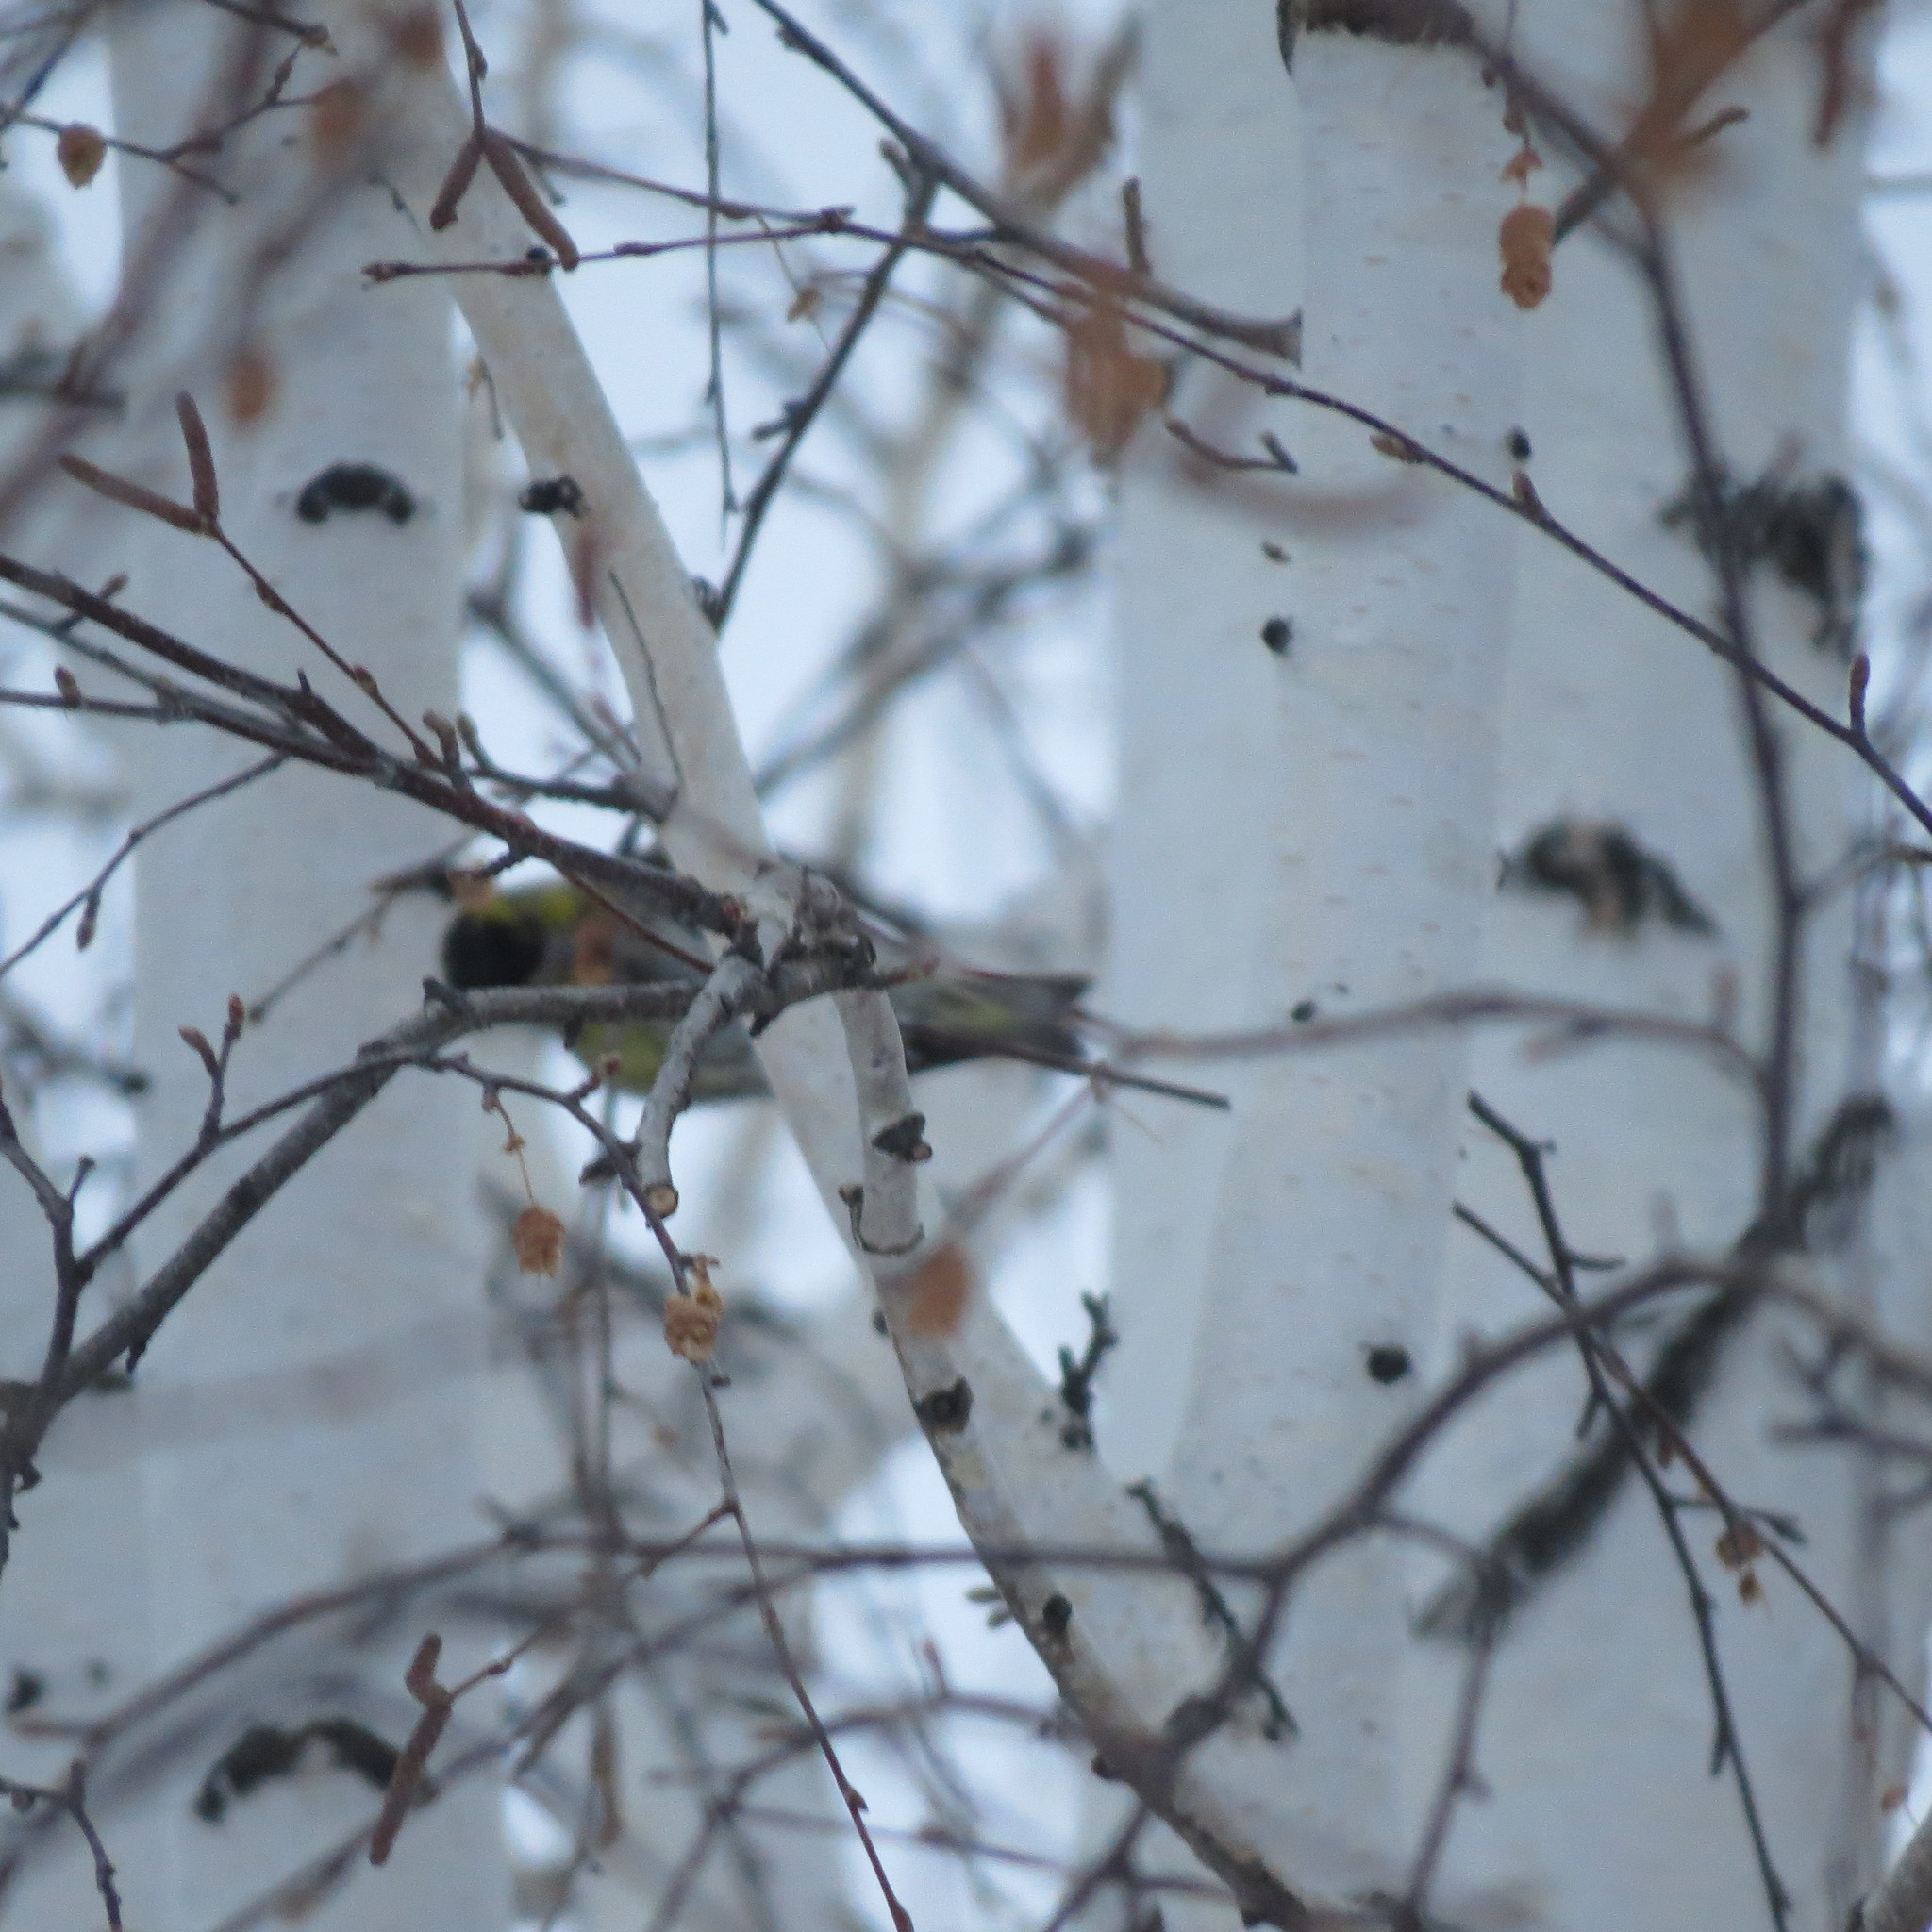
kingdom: Animalia
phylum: Chordata
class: Aves
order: Passeriformes
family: Fringillidae
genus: Spinus
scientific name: Spinus spinus
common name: Eurasian siskin
